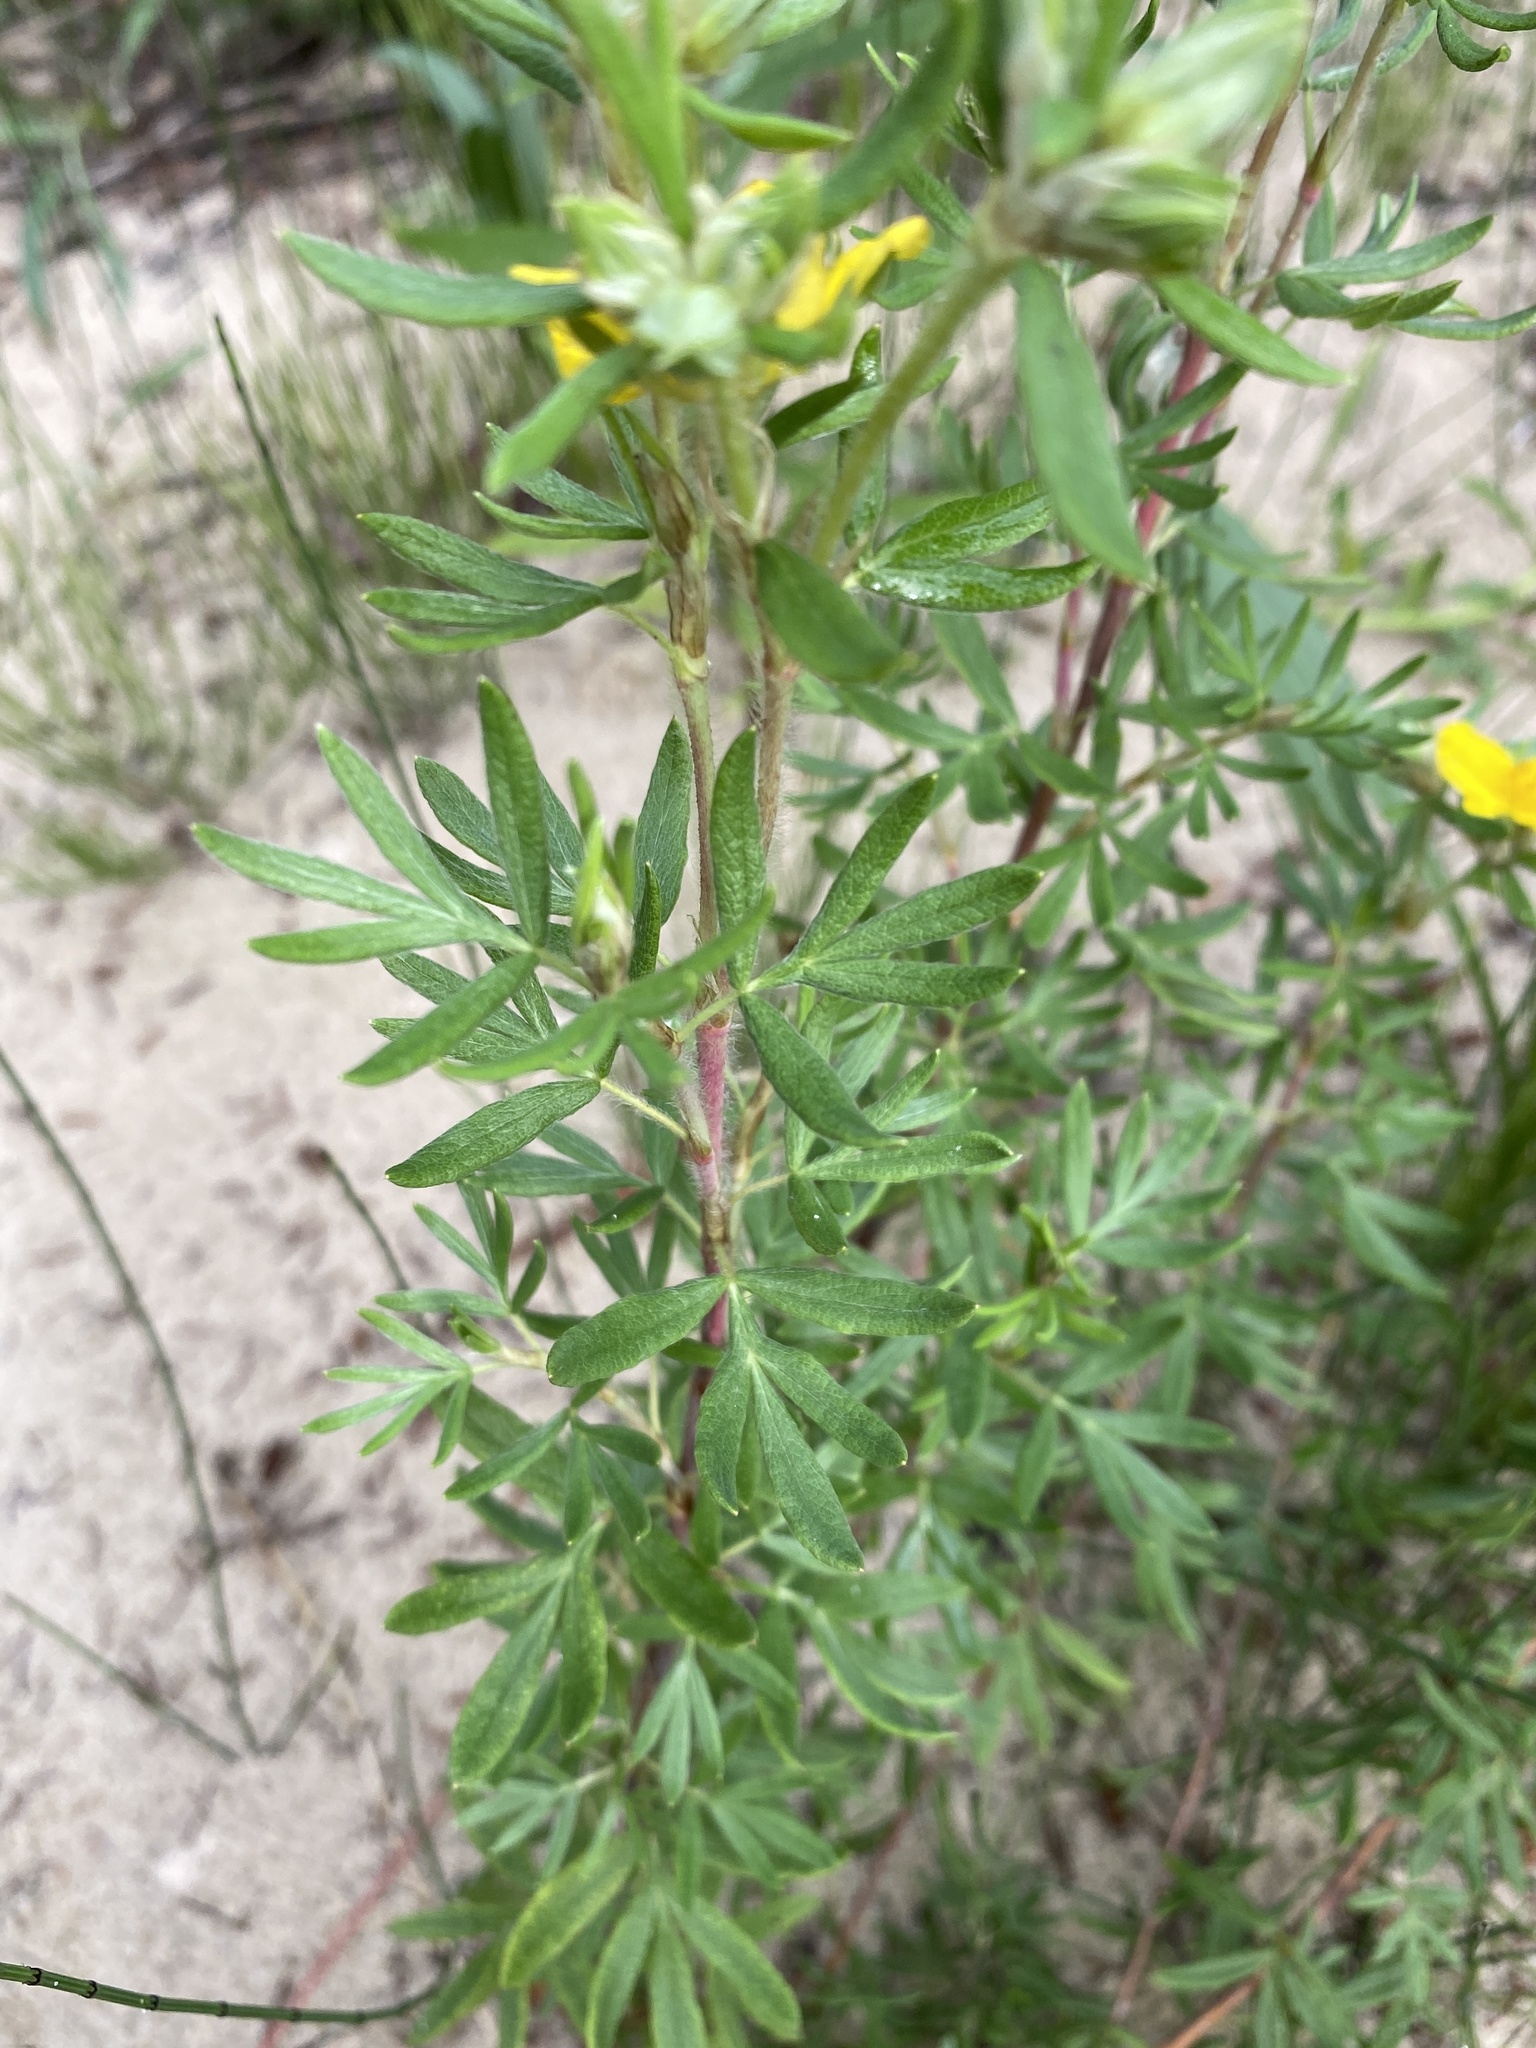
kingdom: Plantae
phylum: Tracheophyta
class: Magnoliopsida
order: Rosales
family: Rosaceae
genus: Dasiphora
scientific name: Dasiphora fruticosa
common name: Shrubby cinquefoil
